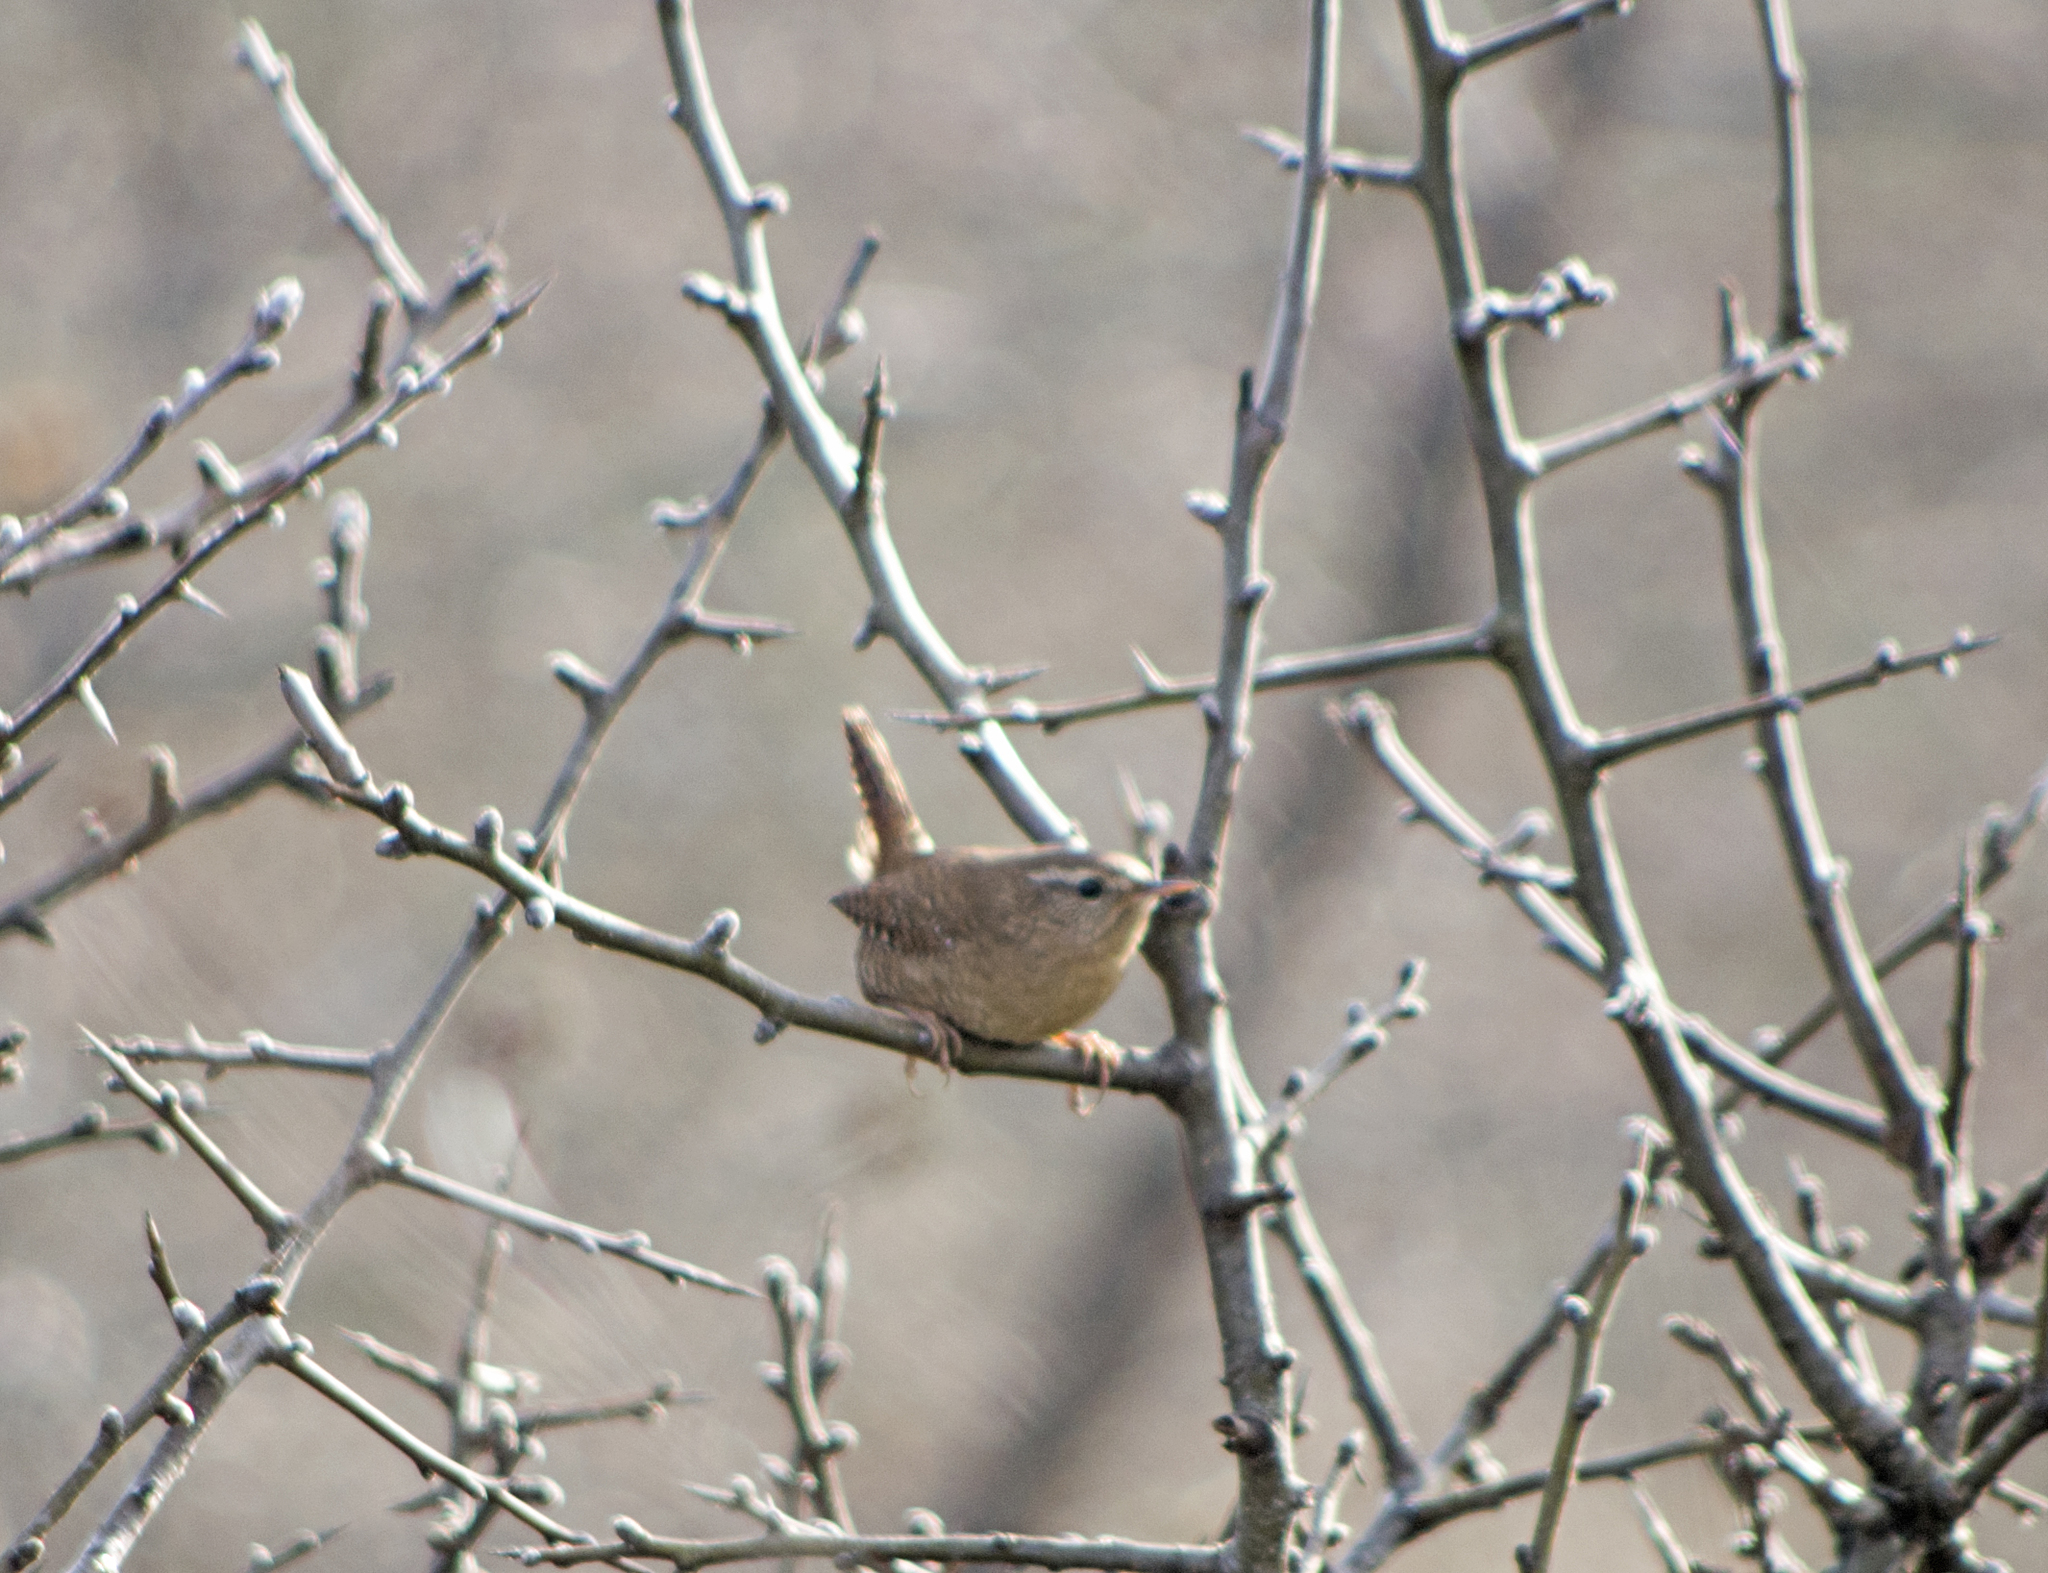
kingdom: Animalia
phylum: Chordata
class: Aves
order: Passeriformes
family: Troglodytidae
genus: Troglodytes
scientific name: Troglodytes troglodytes
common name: Eurasian wren
